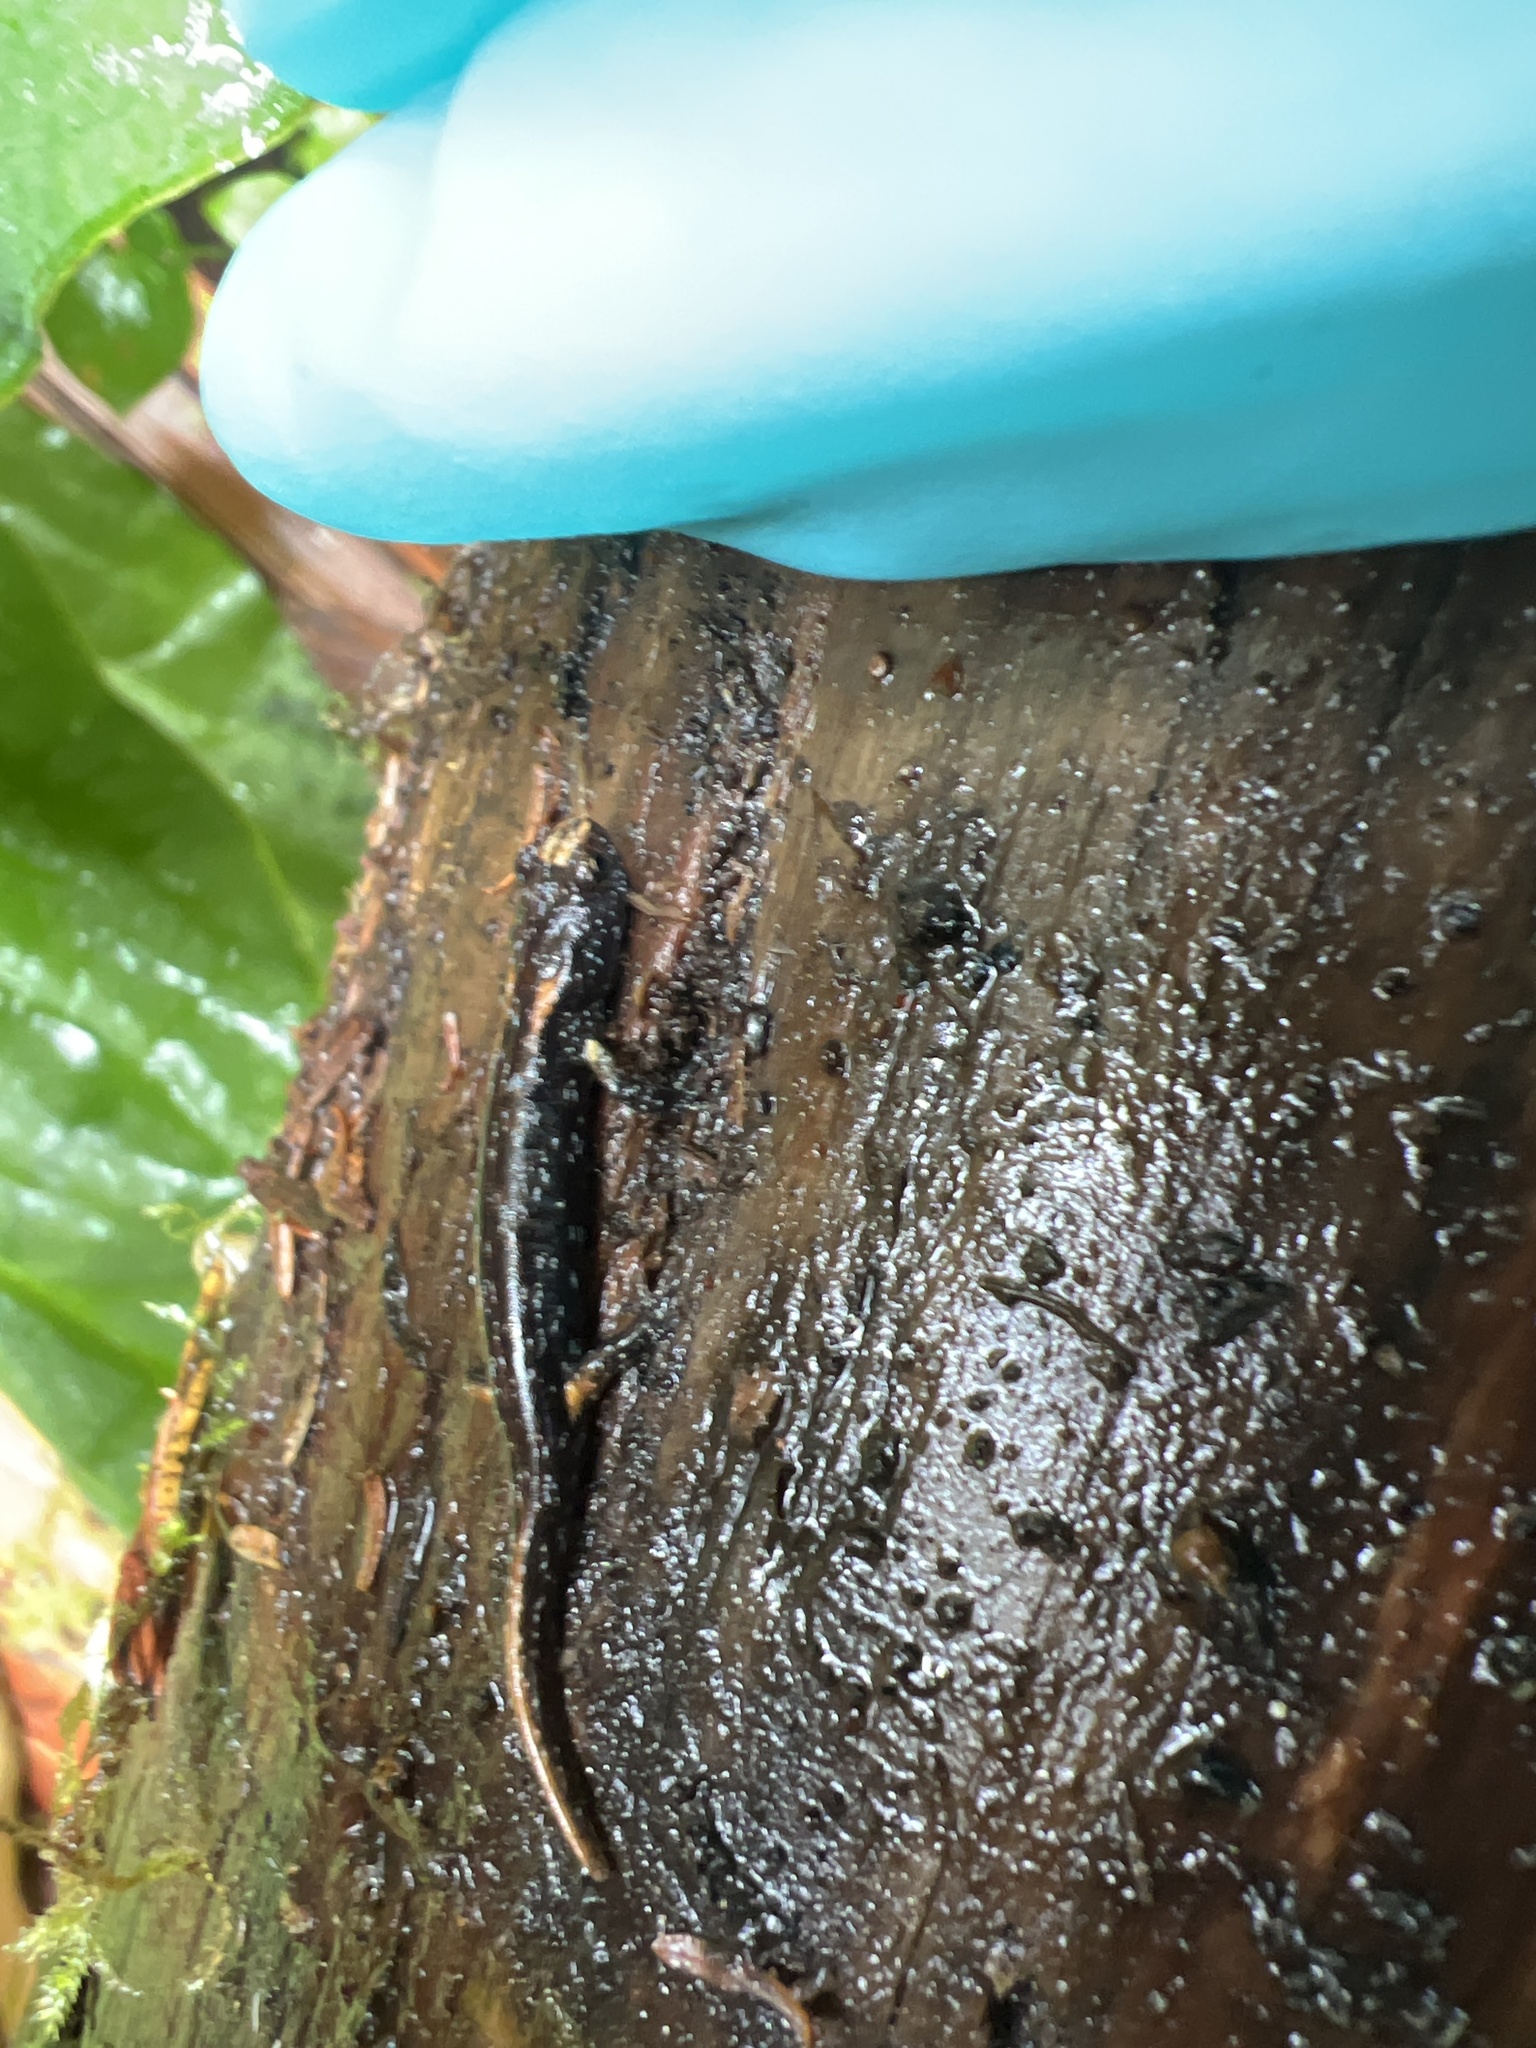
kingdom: Animalia
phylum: Chordata
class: Amphibia
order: Caudata
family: Plethodontidae
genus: Aneides
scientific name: Aneides vagrans
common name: Wandering salamander
